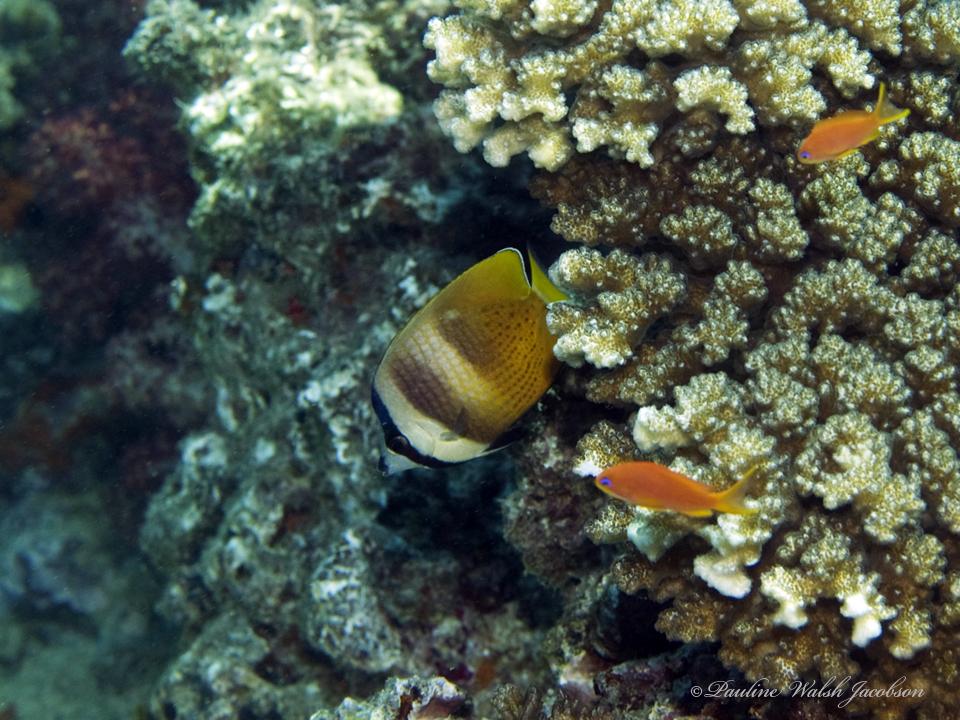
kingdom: Animalia
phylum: Chordata
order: Perciformes
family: Chaetodontidae
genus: Chaetodon
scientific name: Chaetodon kleinii
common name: Klein's butterflyfish
